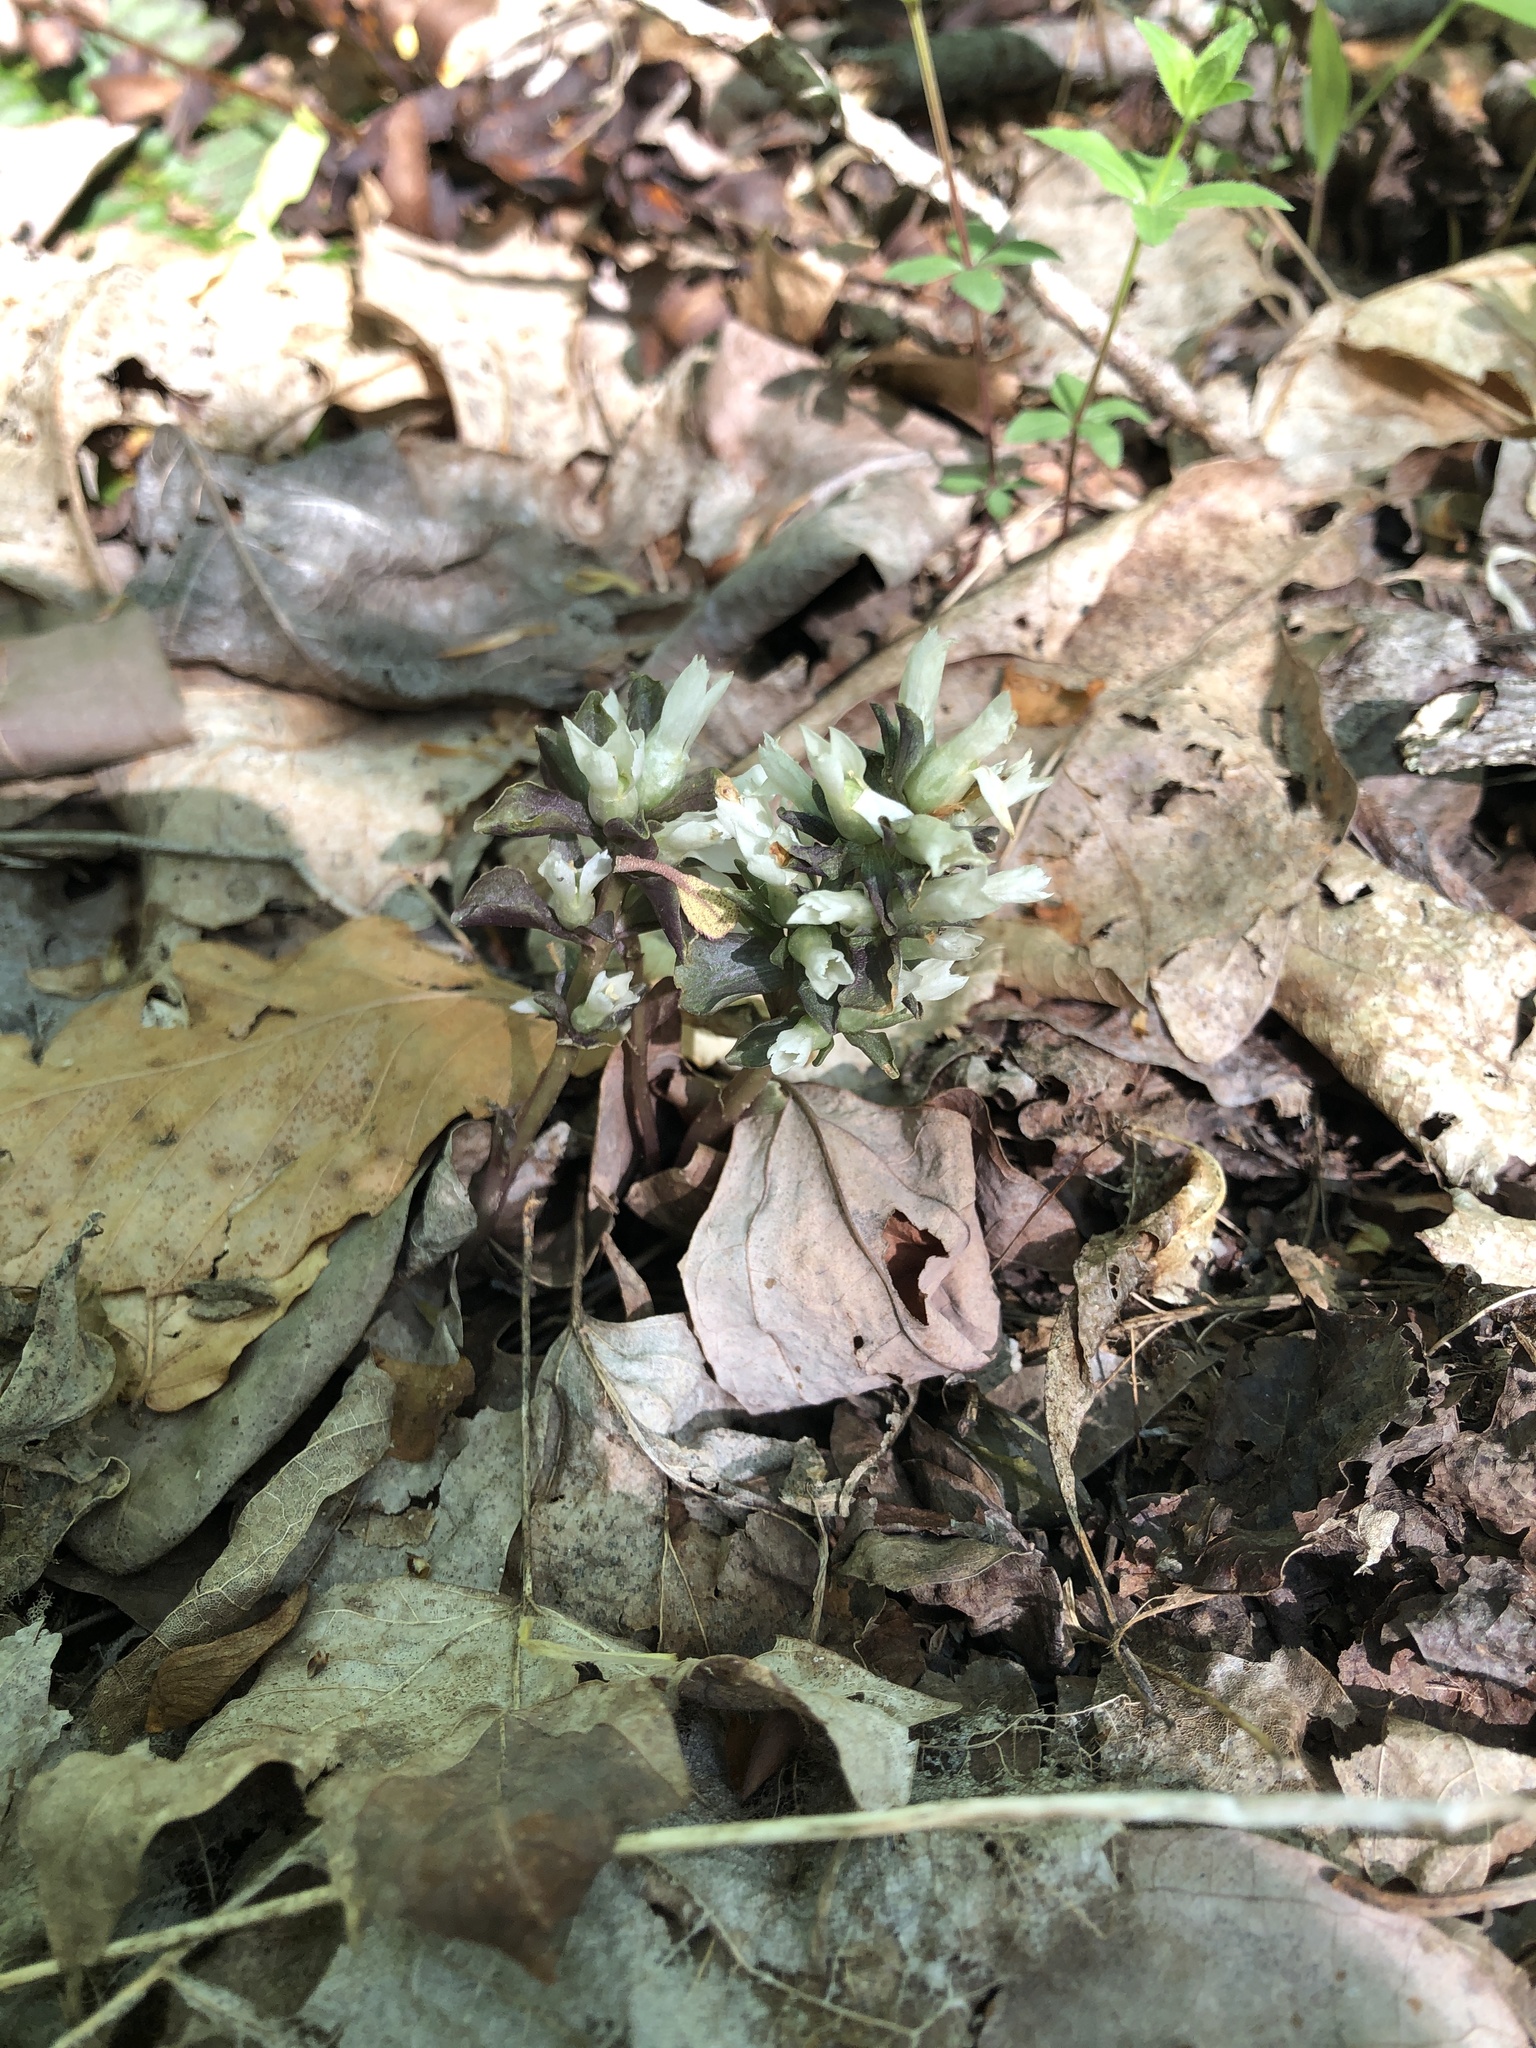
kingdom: Plantae
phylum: Tracheophyta
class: Magnoliopsida
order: Gentianales
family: Gentianaceae
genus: Obolaria
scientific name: Obolaria virginica
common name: Pennywort
